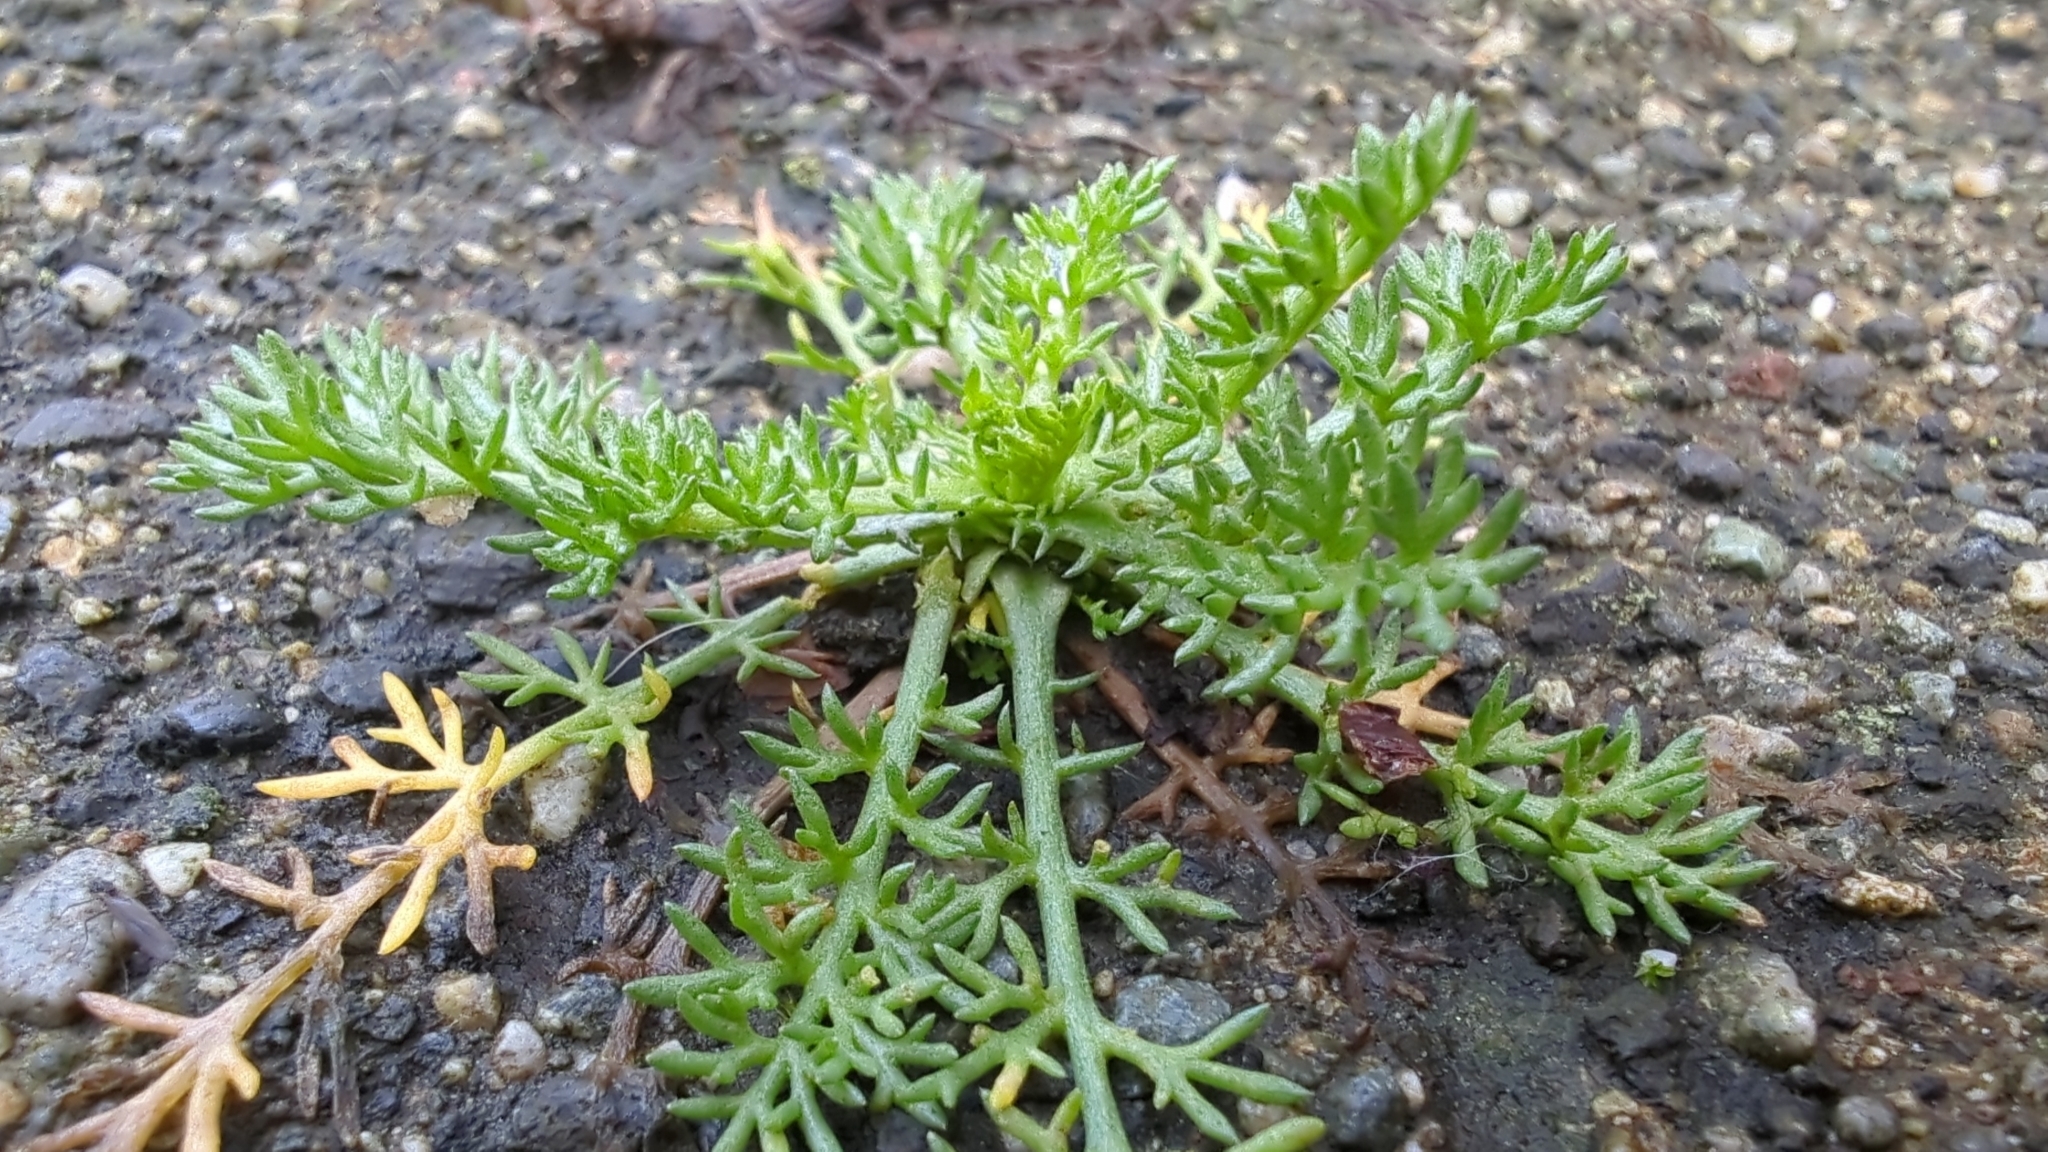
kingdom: Plantae
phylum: Tracheophyta
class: Magnoliopsida
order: Asterales
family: Asteraceae
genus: Matricaria
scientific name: Matricaria discoidea
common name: Disc mayweed
